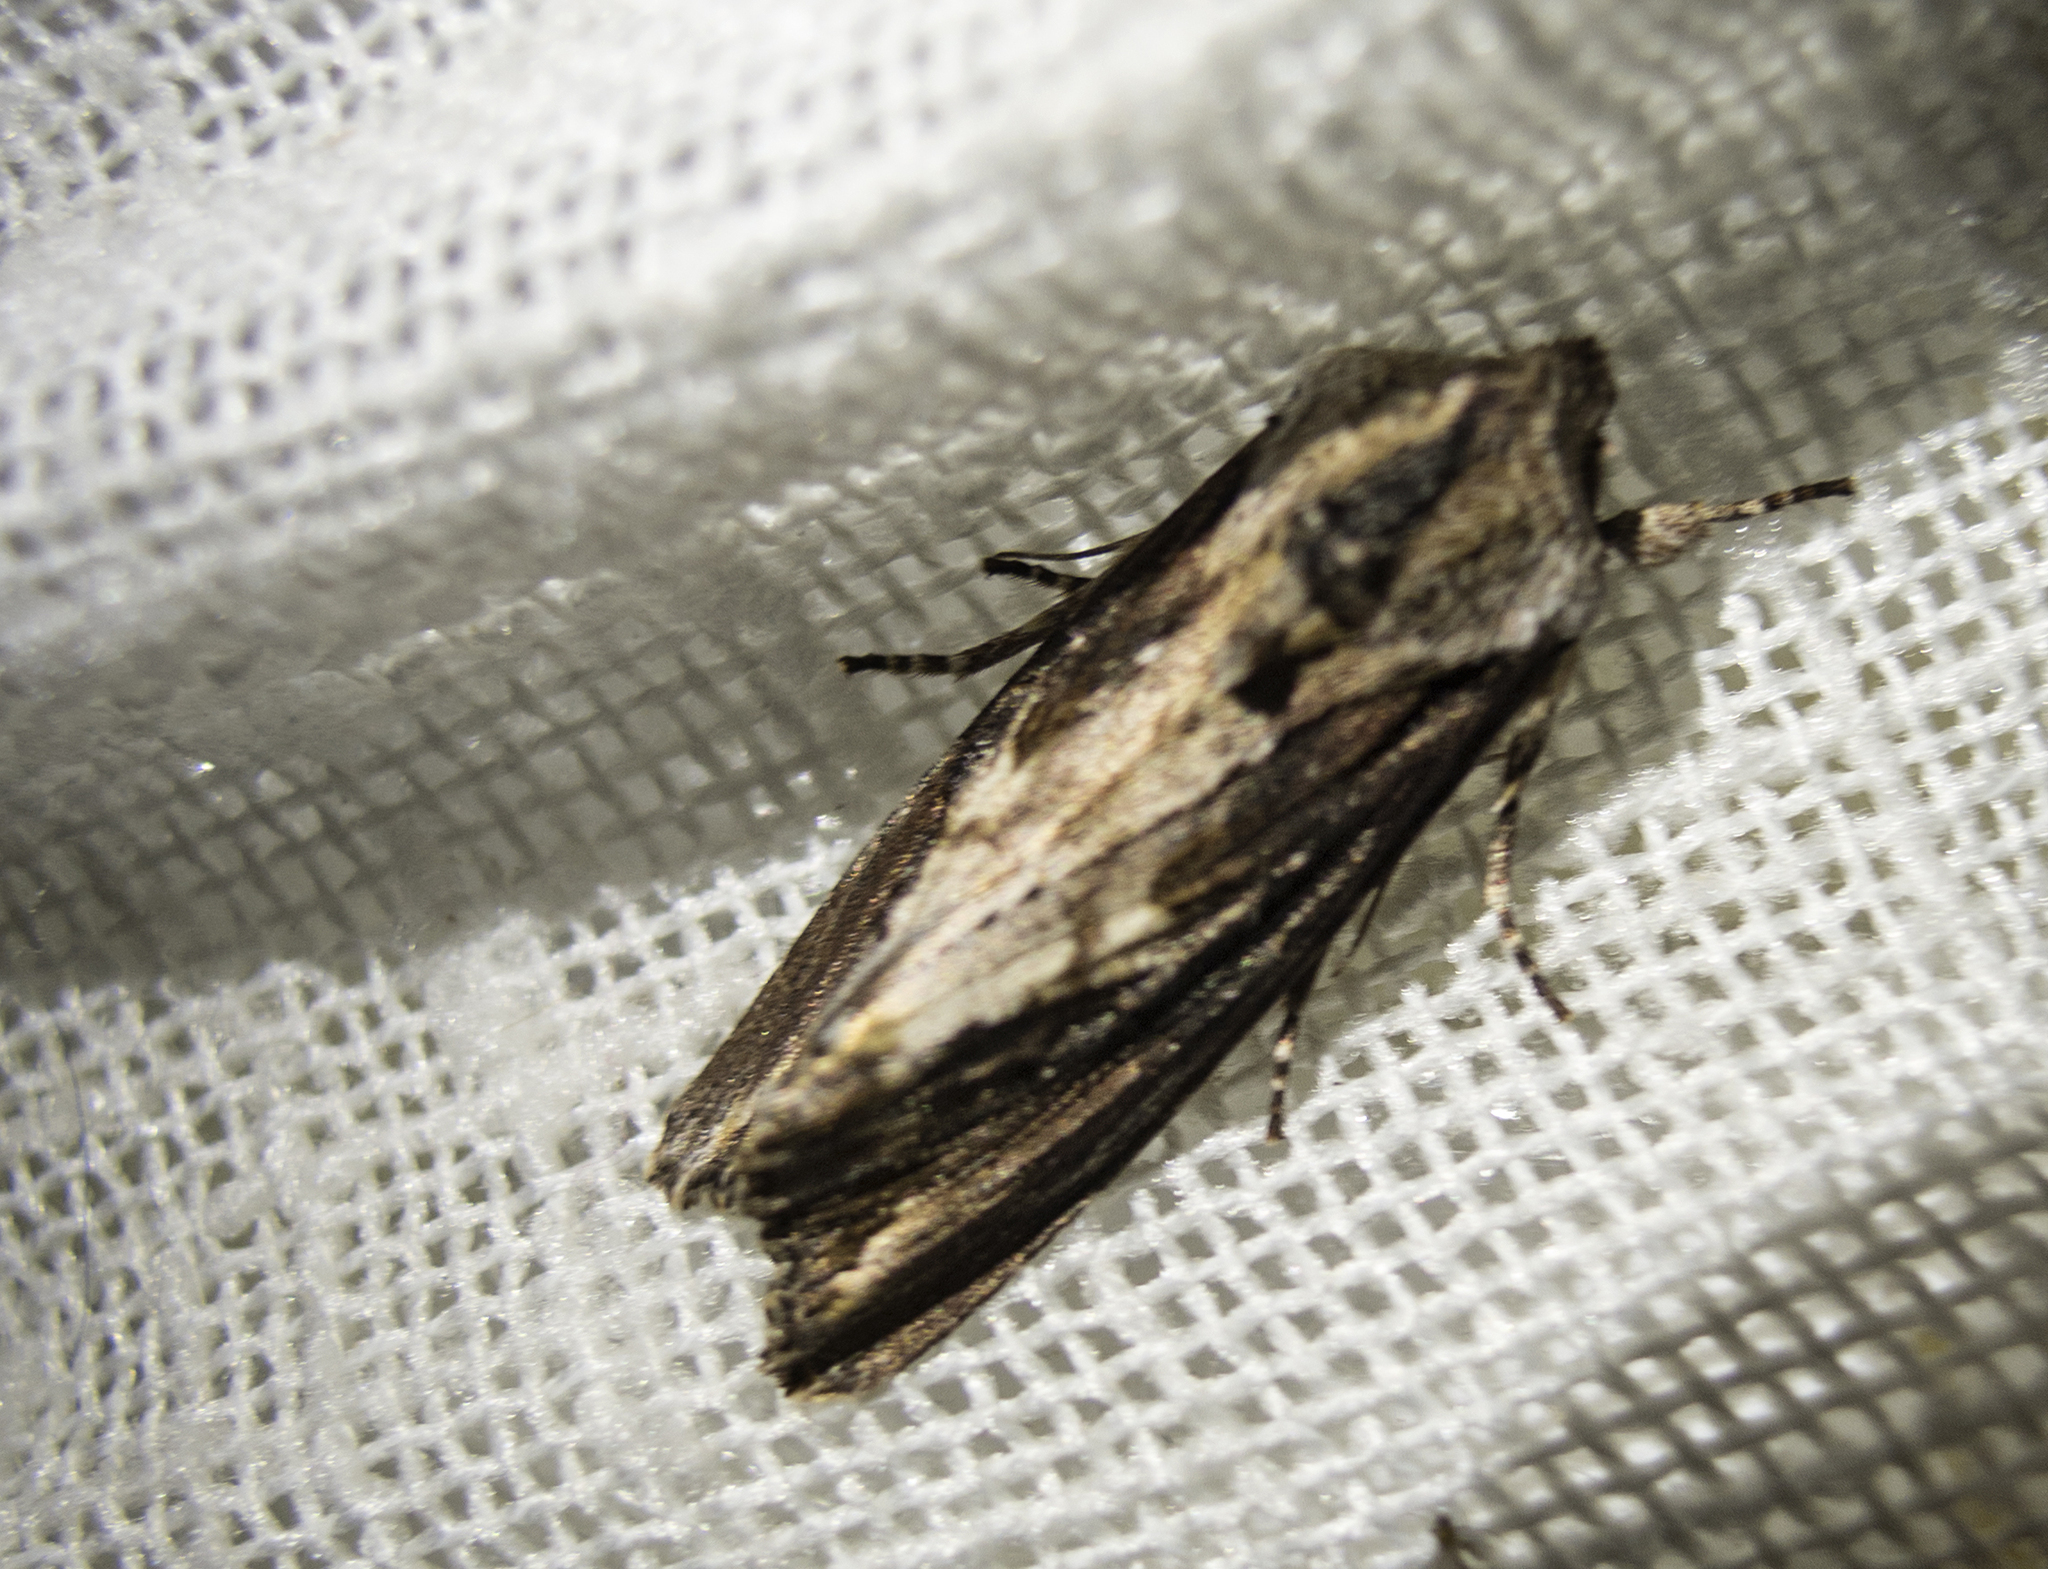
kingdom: Animalia
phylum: Arthropoda
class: Insecta
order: Lepidoptera
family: Noctuidae
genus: Egira
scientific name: Egira
